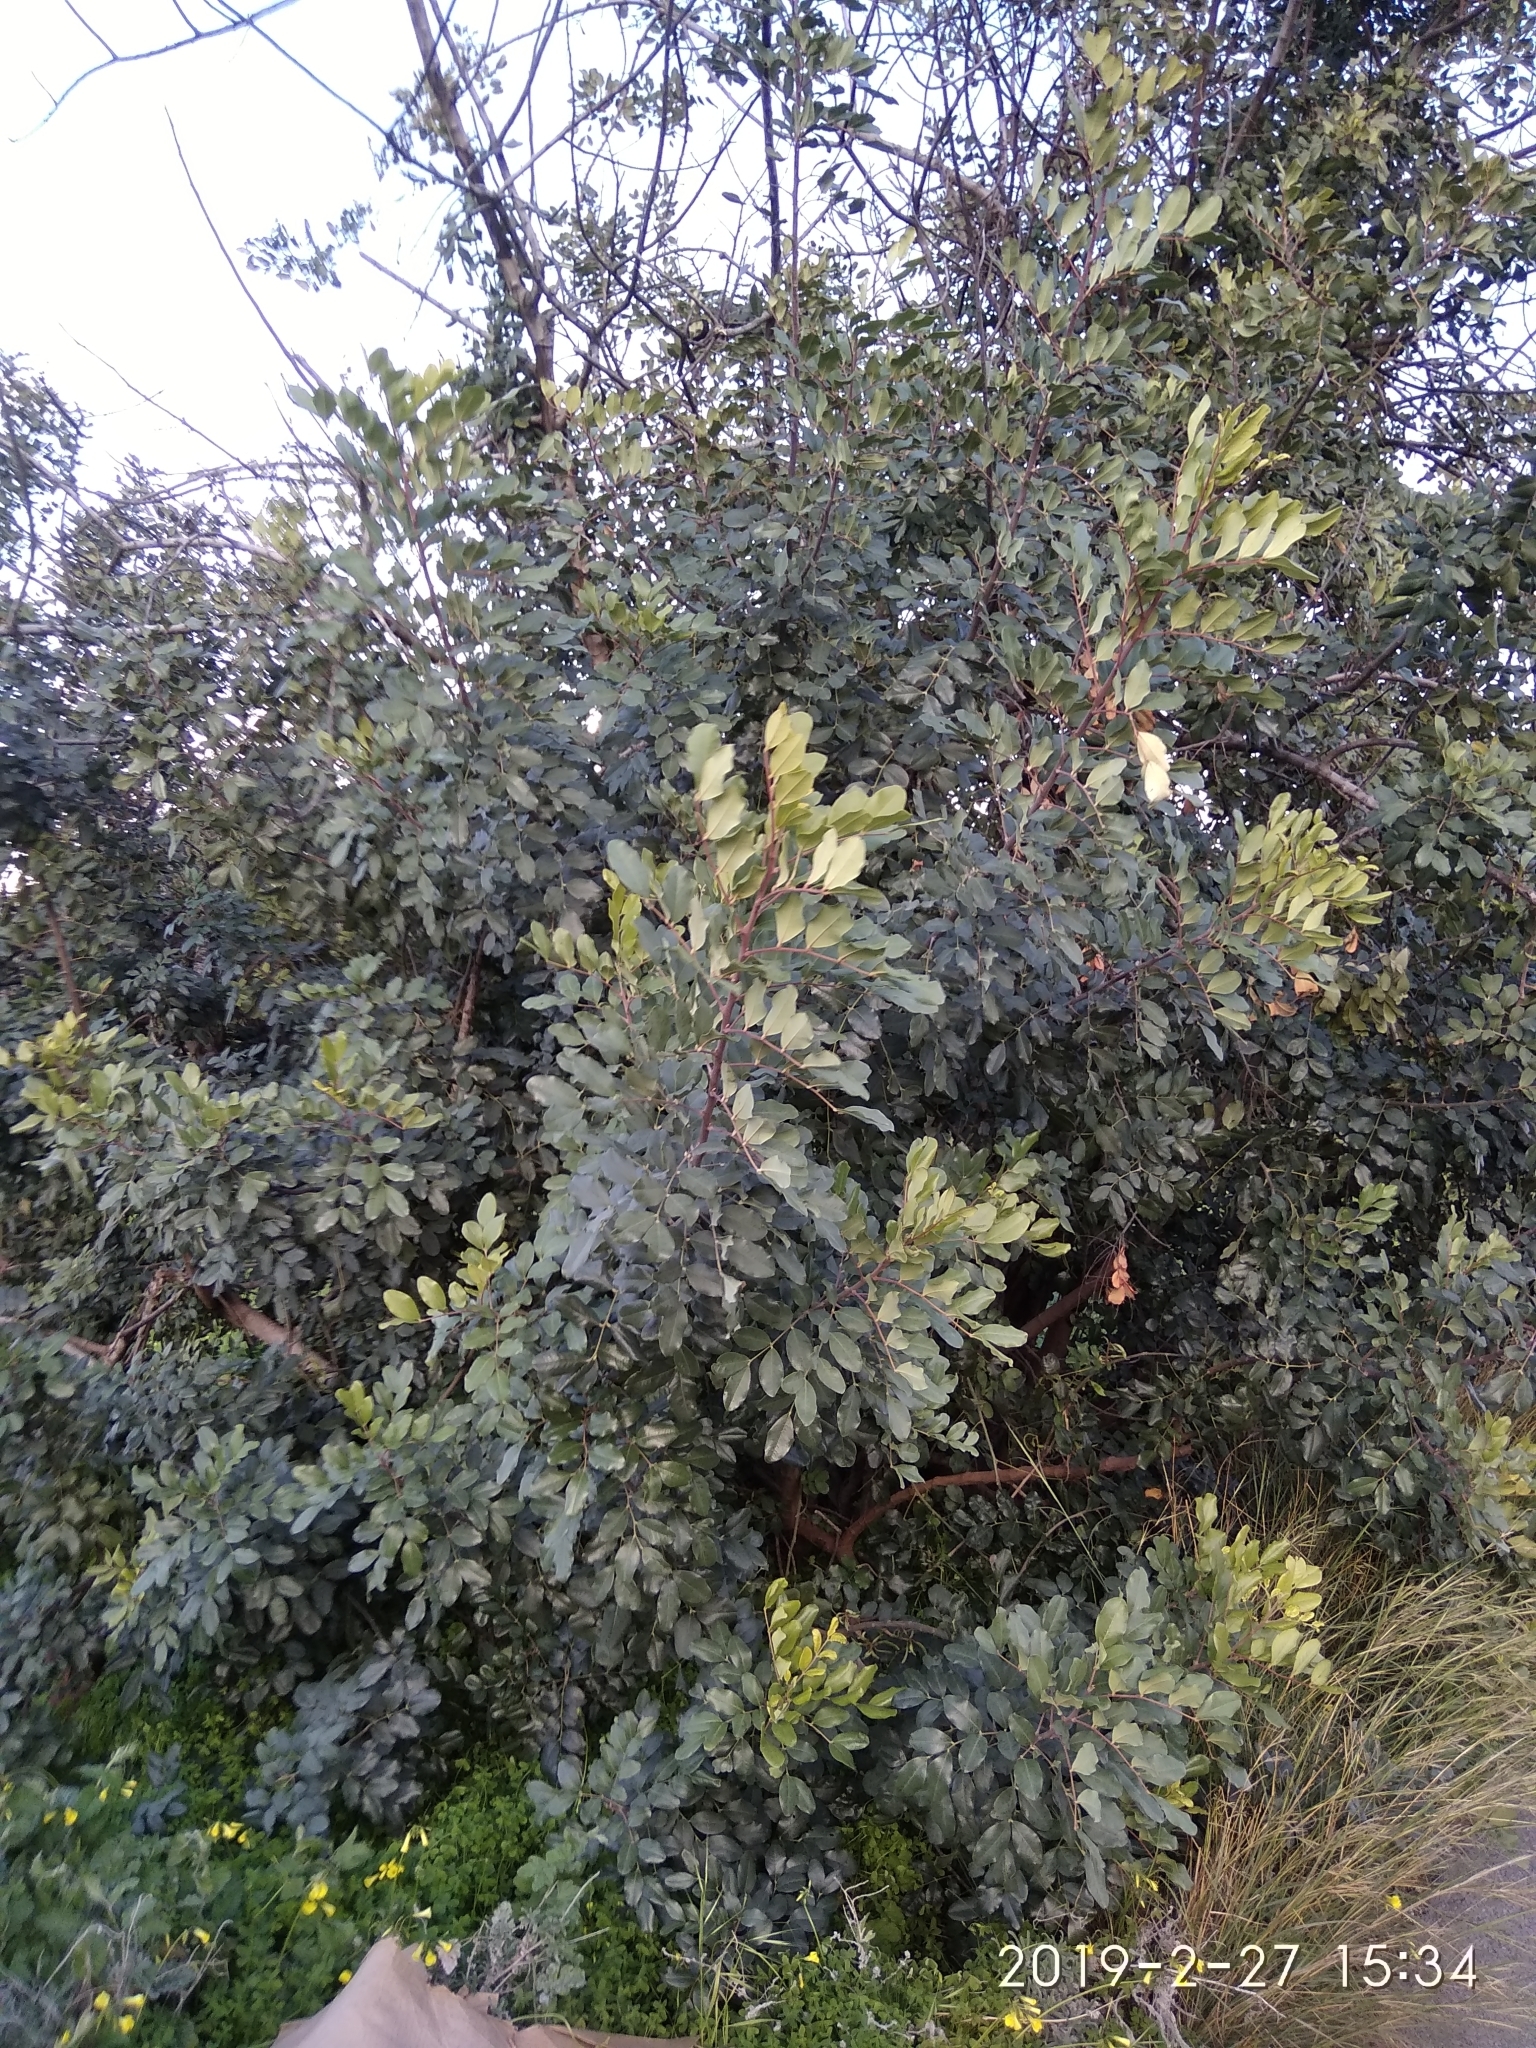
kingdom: Plantae
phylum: Tracheophyta
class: Magnoliopsida
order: Fabales
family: Fabaceae
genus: Ceratonia
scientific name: Ceratonia siliqua
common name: Carob
